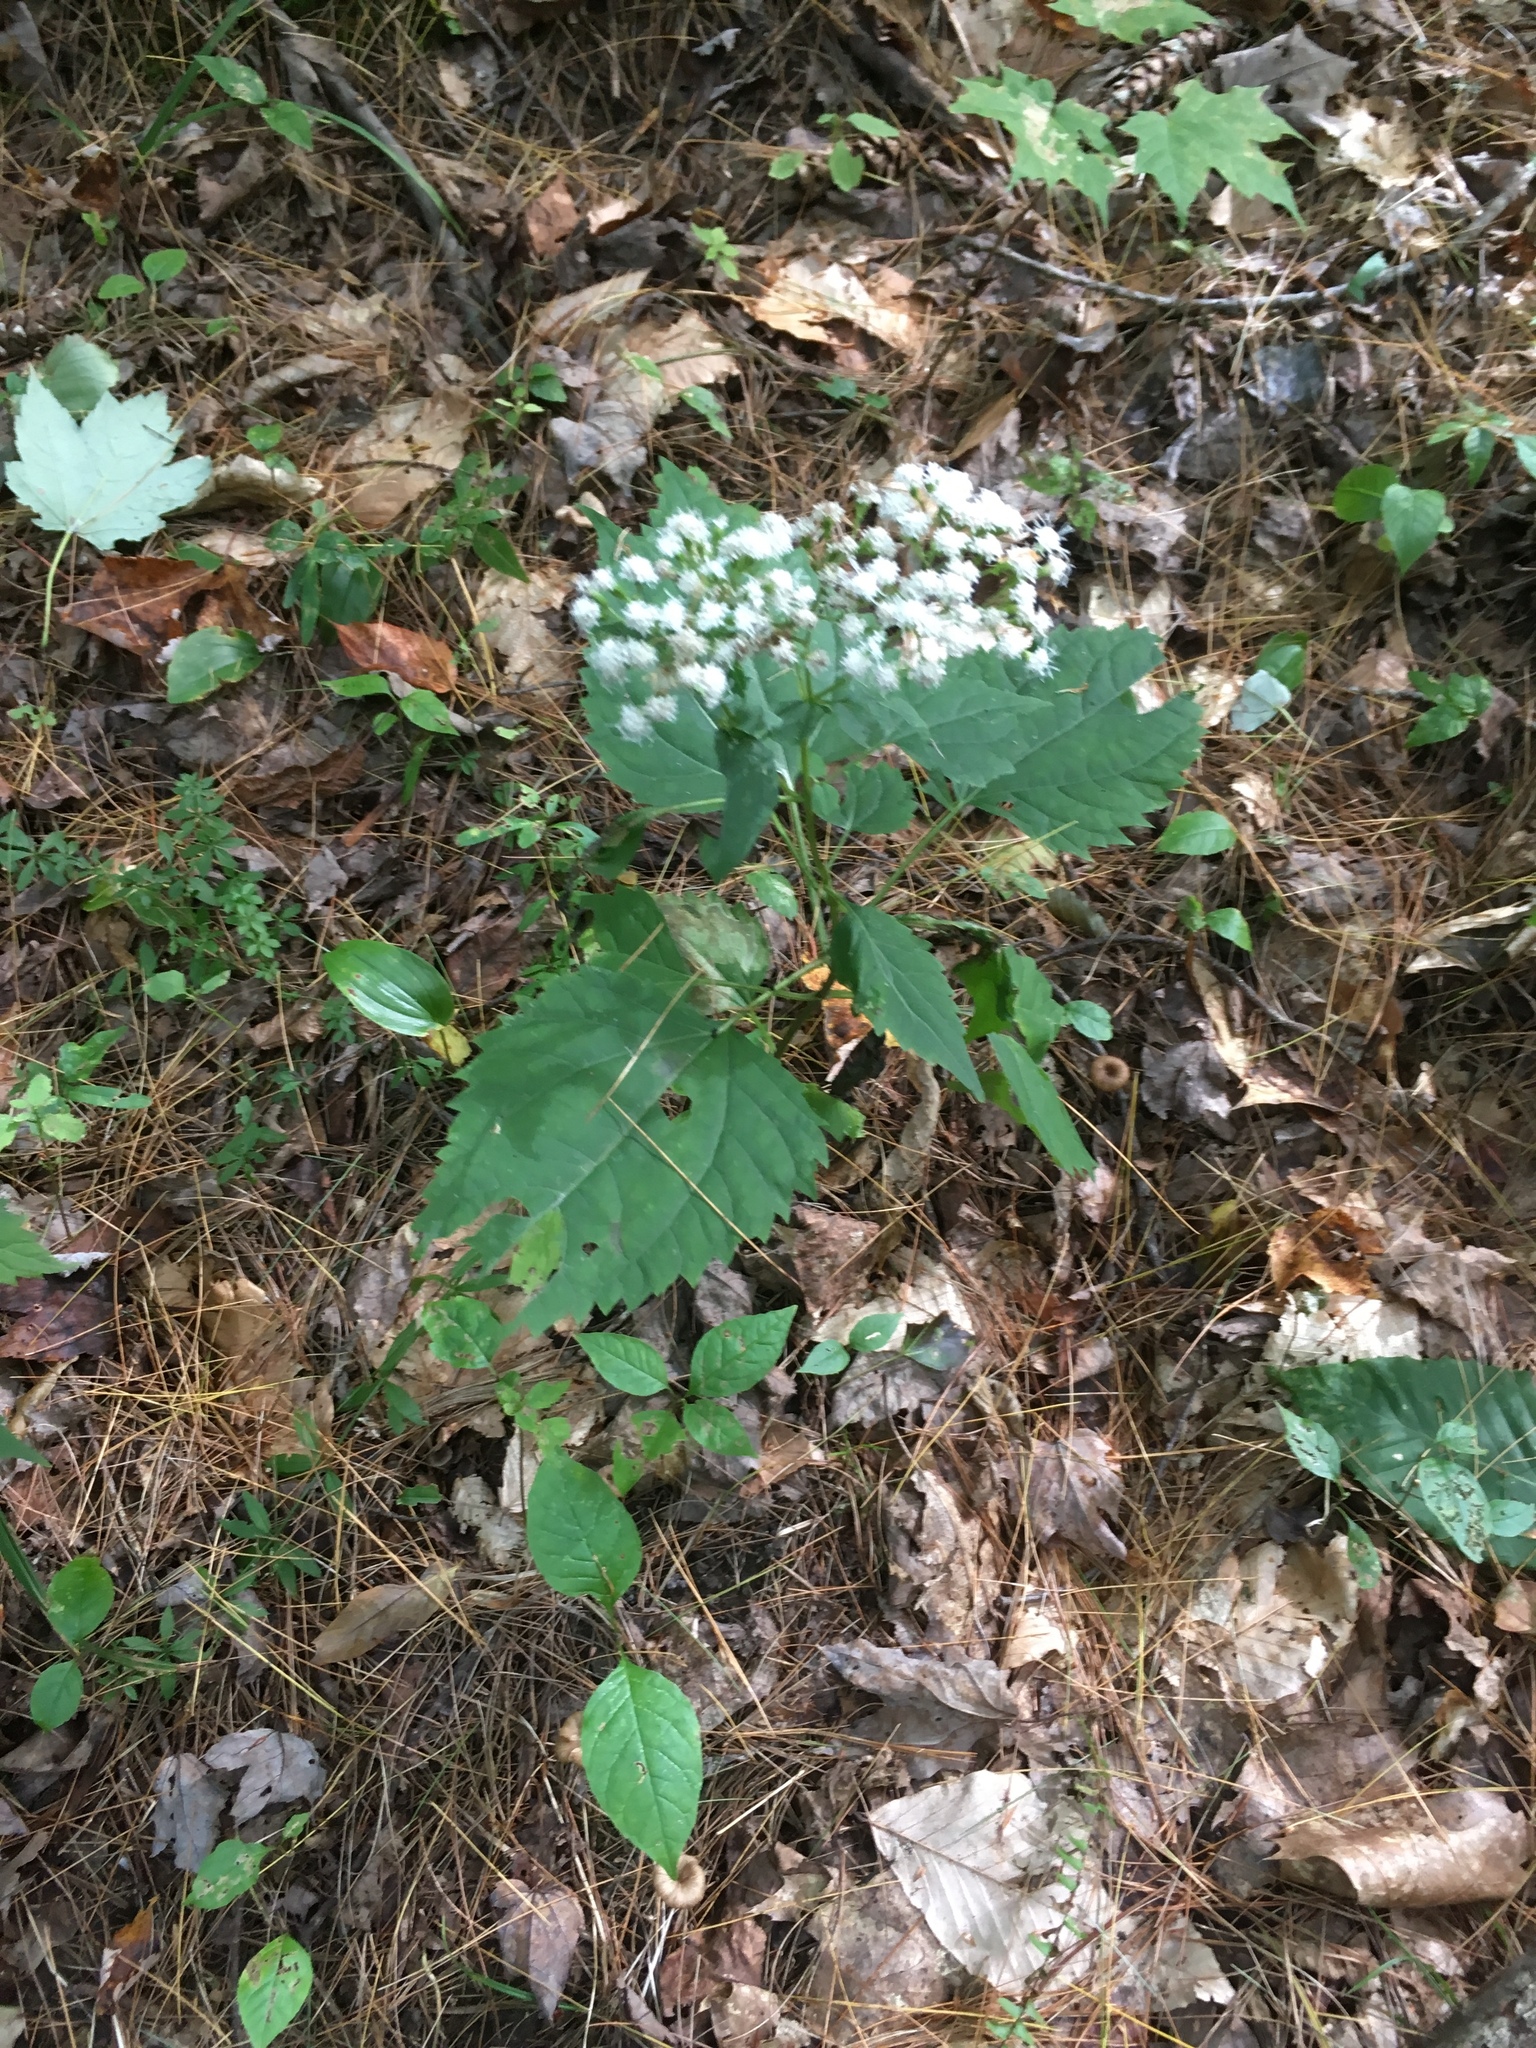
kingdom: Plantae
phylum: Tracheophyta
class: Magnoliopsida
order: Asterales
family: Asteraceae
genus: Ageratina
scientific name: Ageratina altissima
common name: White snakeroot
